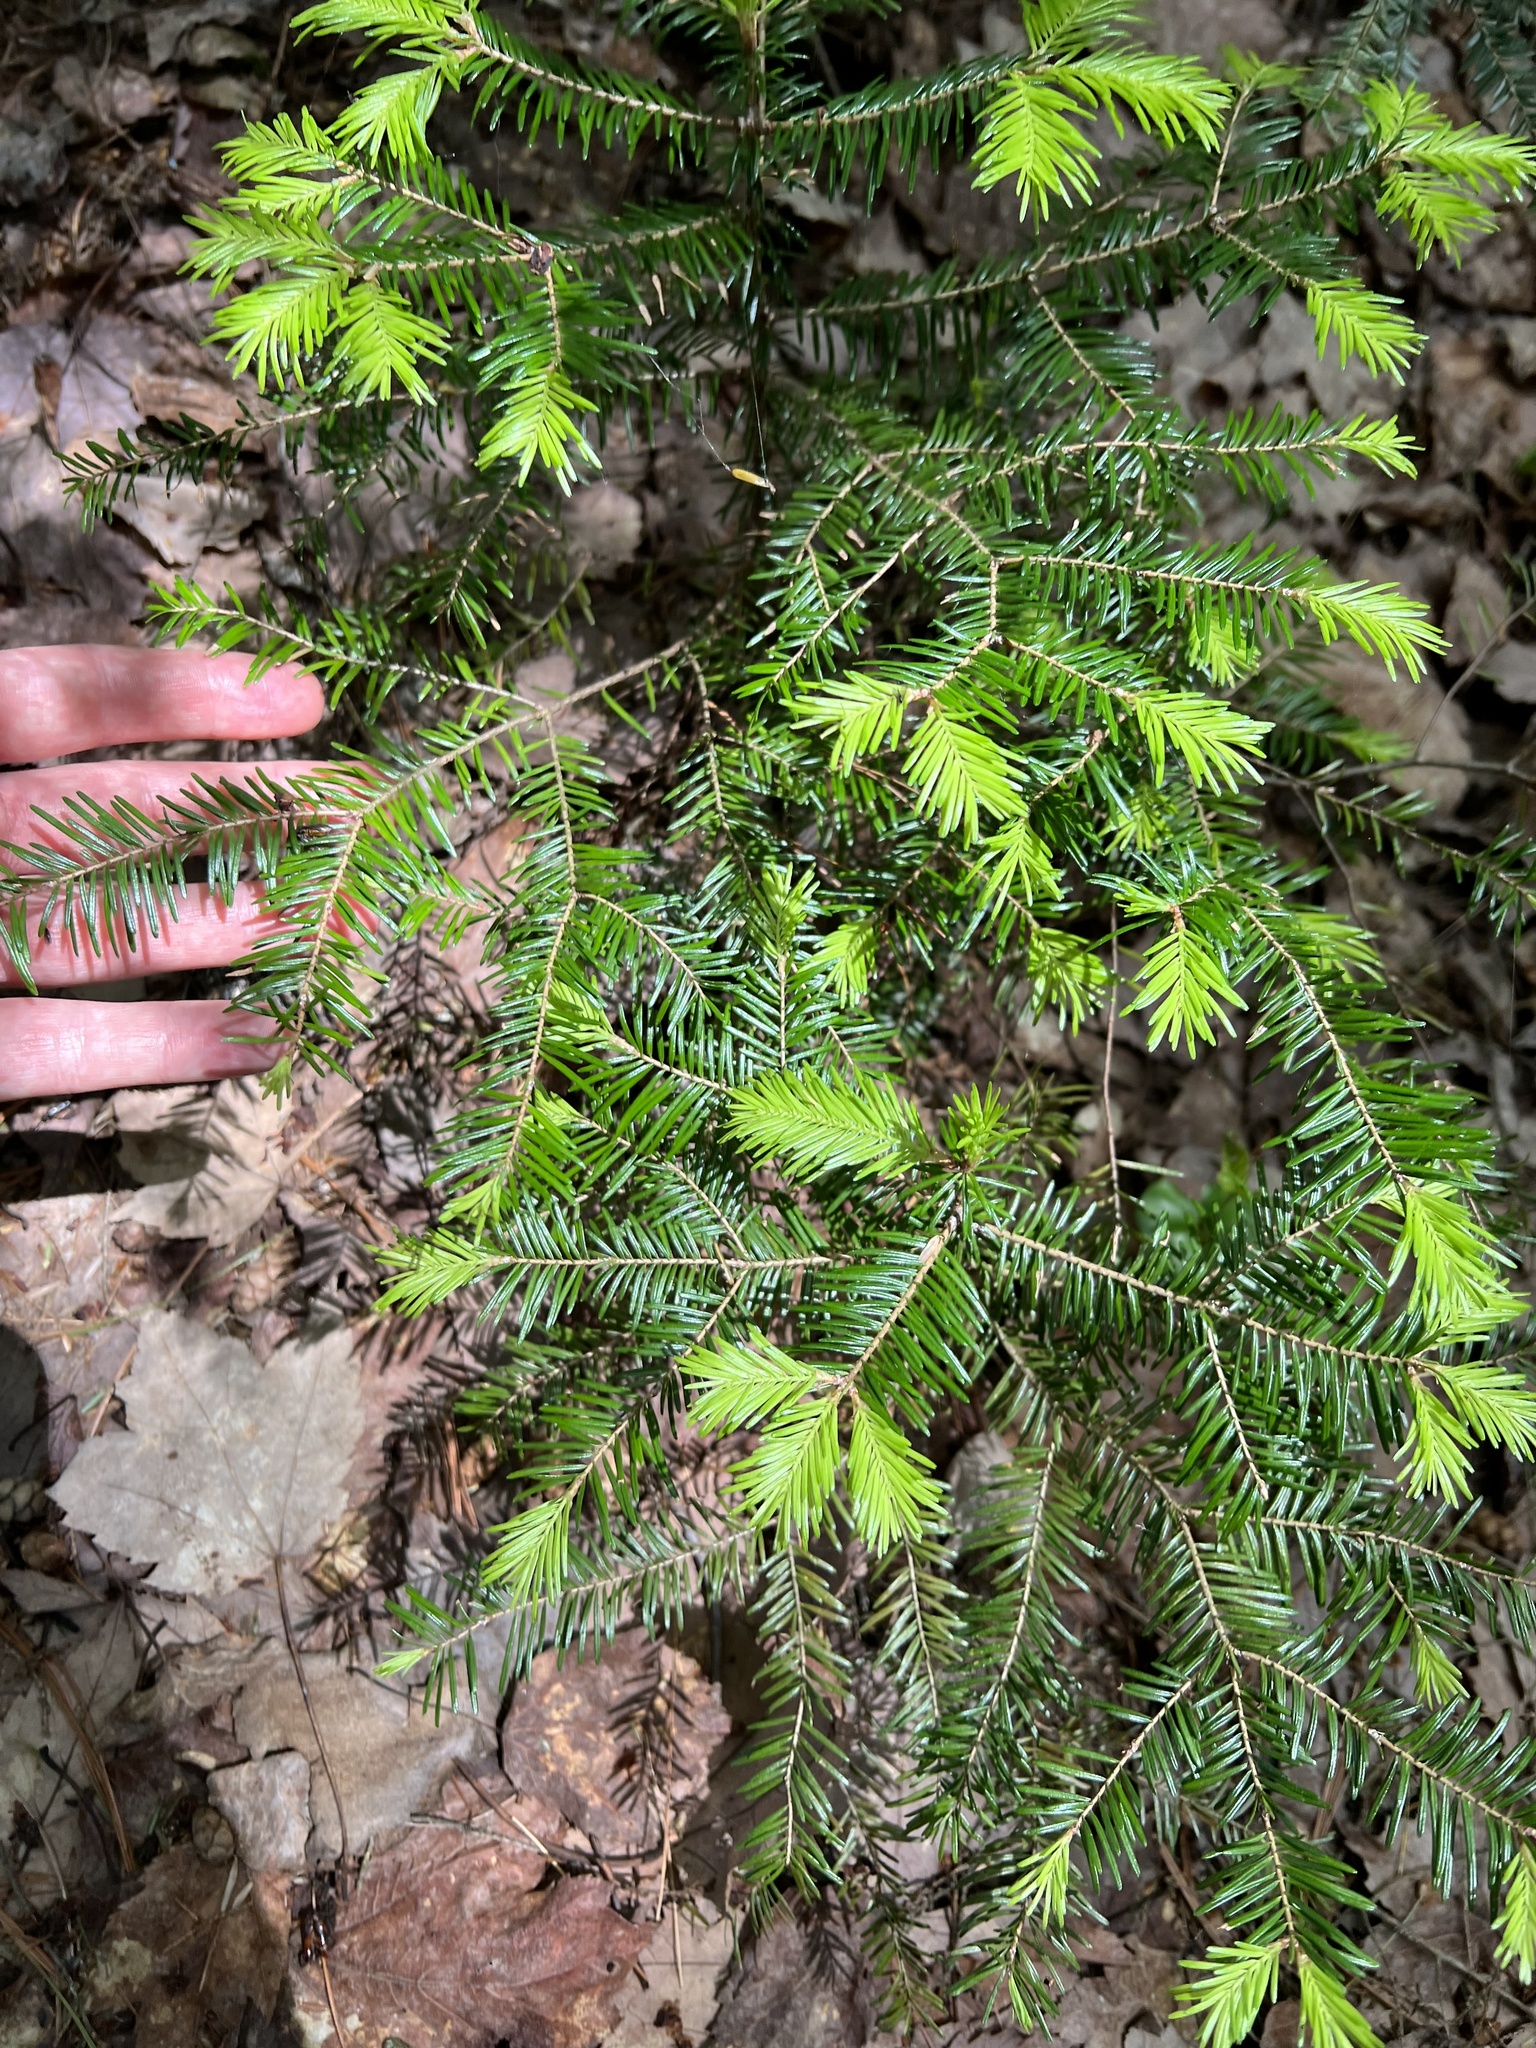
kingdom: Plantae
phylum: Tracheophyta
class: Pinopsida
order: Pinales
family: Pinaceae
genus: Abies
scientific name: Abies balsamea
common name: Balsam fir
